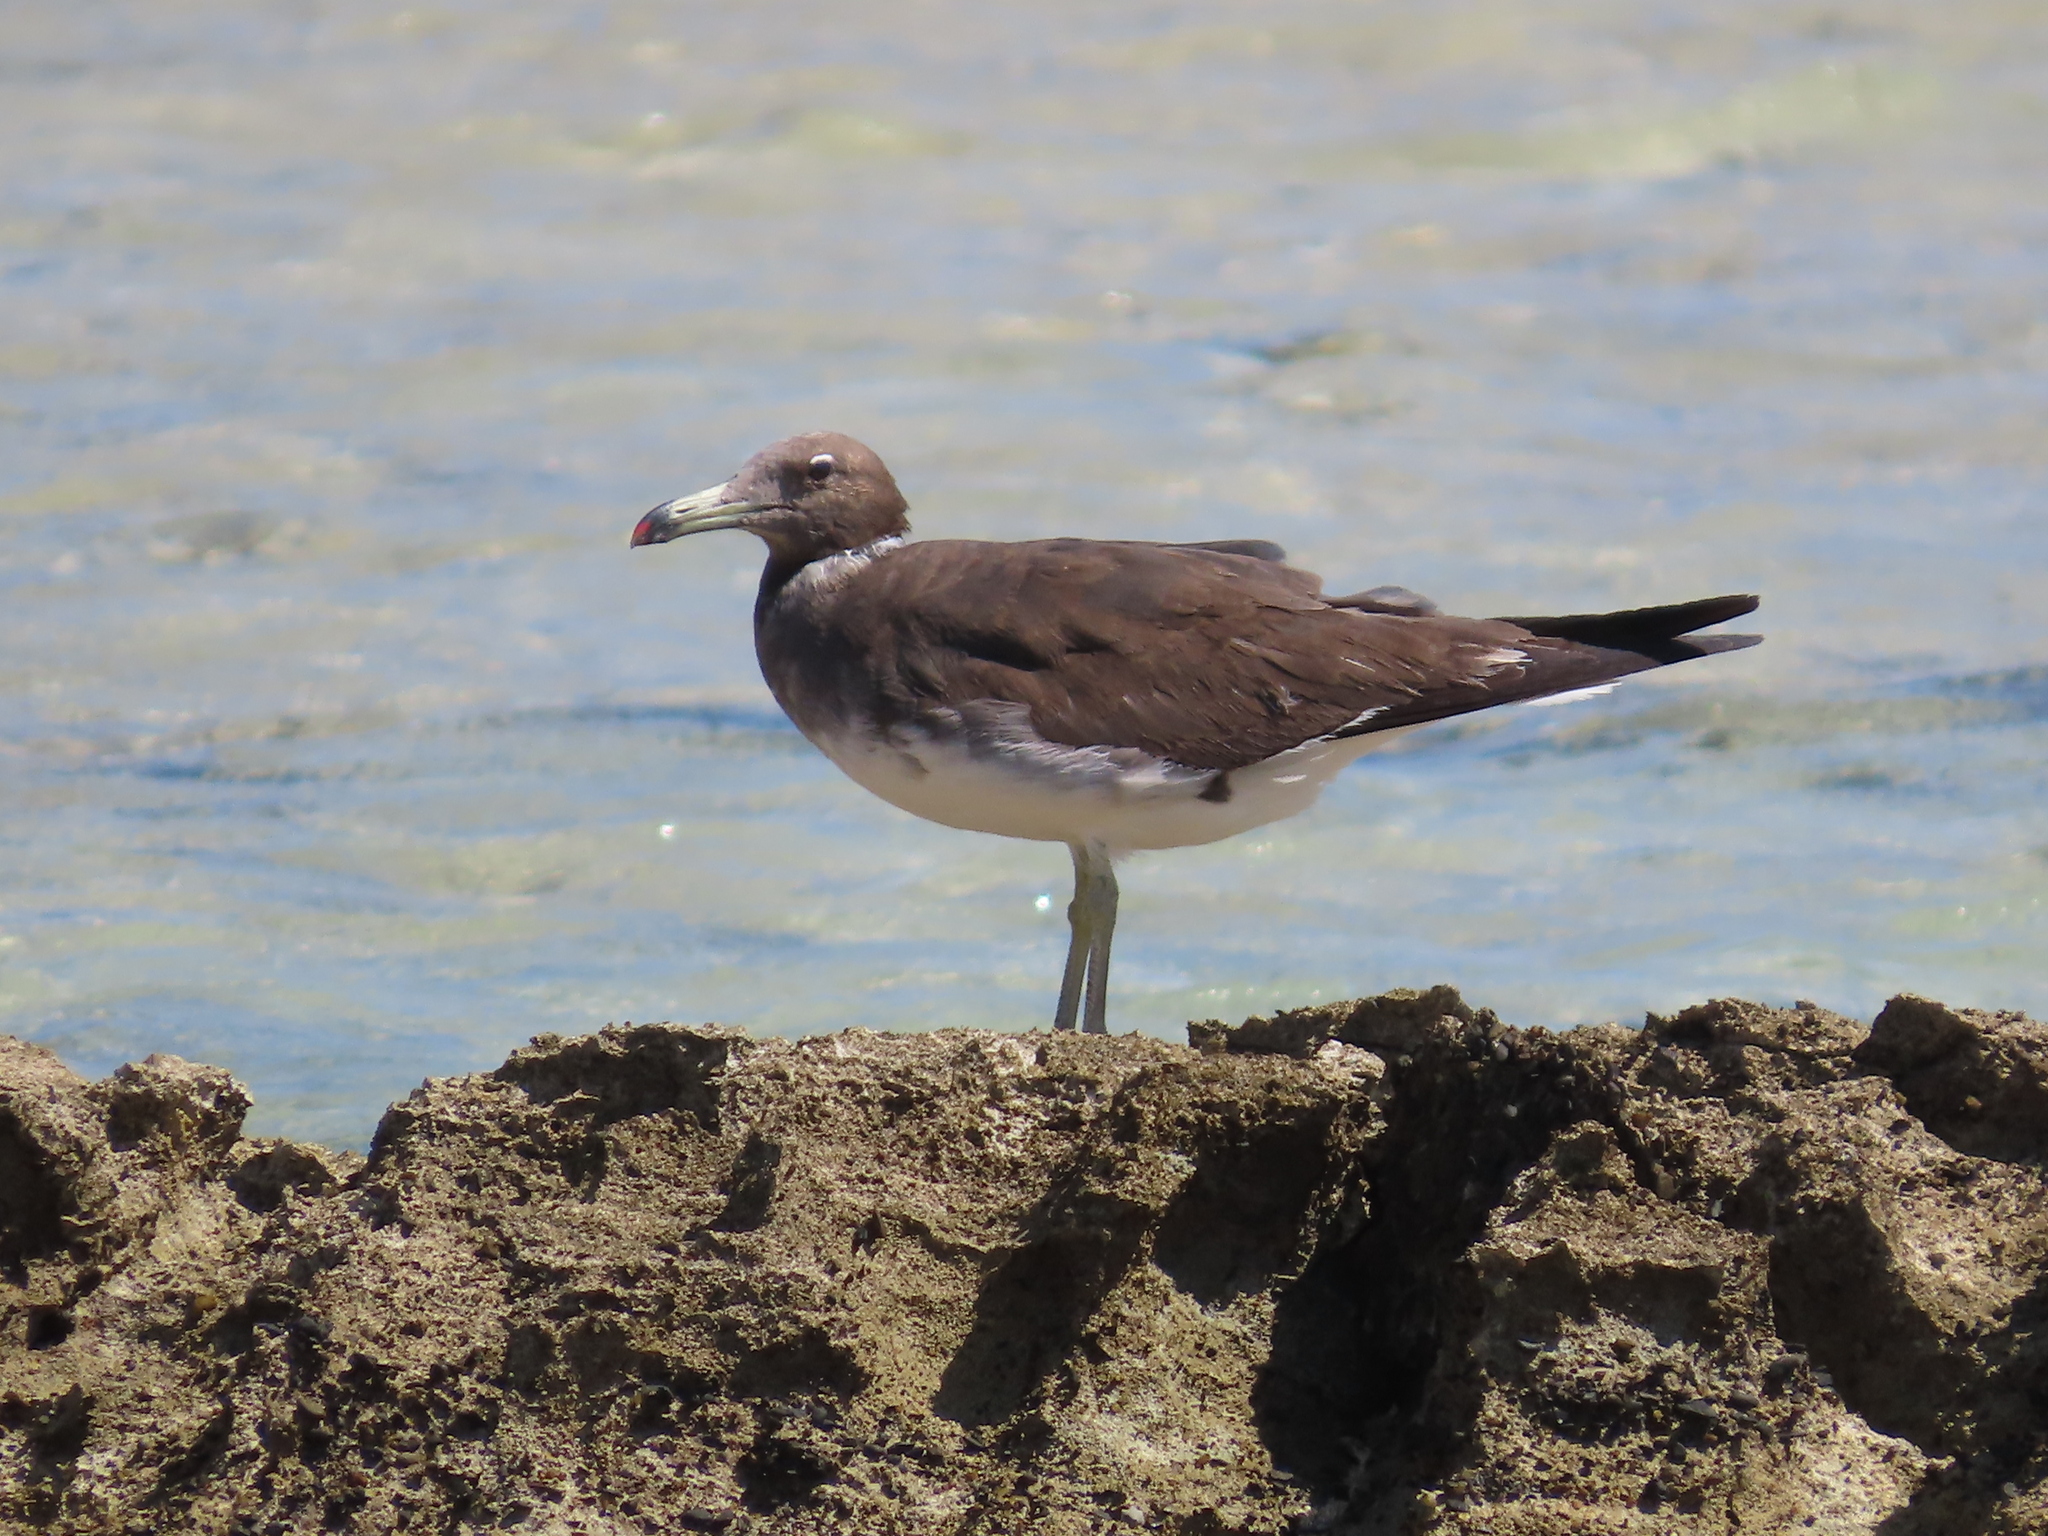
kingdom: Animalia
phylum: Chordata
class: Aves
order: Charadriiformes
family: Laridae
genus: Ichthyaetus
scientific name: Ichthyaetus hemprichii
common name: Sooty gull
